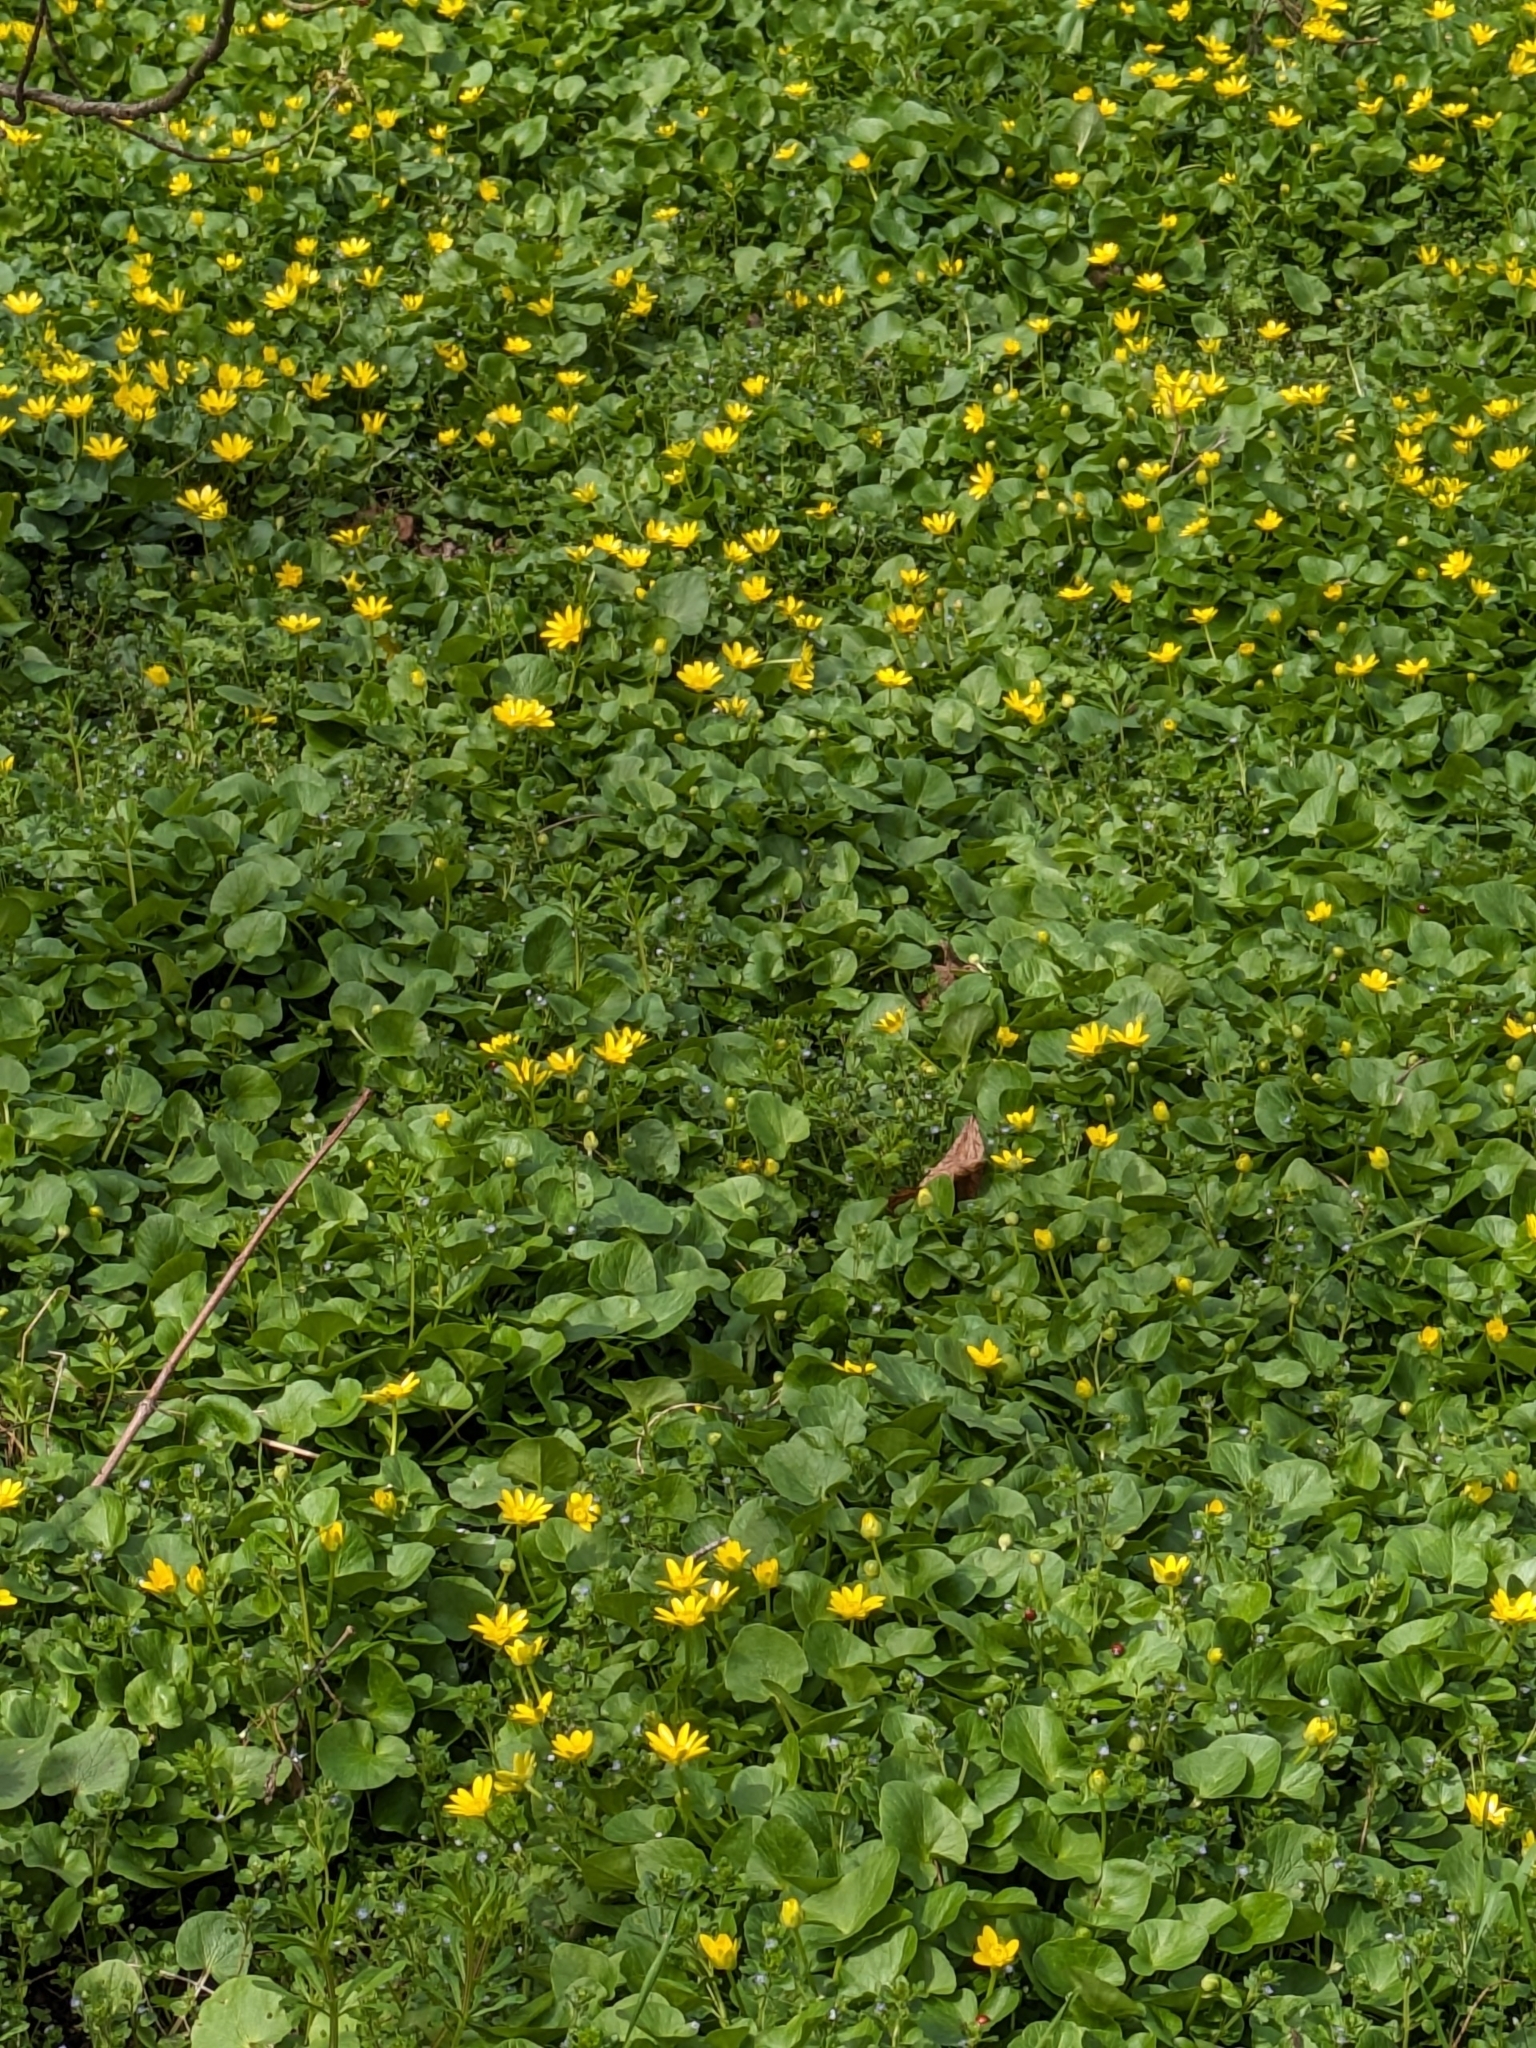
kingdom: Plantae
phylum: Tracheophyta
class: Magnoliopsida
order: Ranunculales
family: Ranunculaceae
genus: Ficaria
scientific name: Ficaria verna
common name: Lesser celandine
